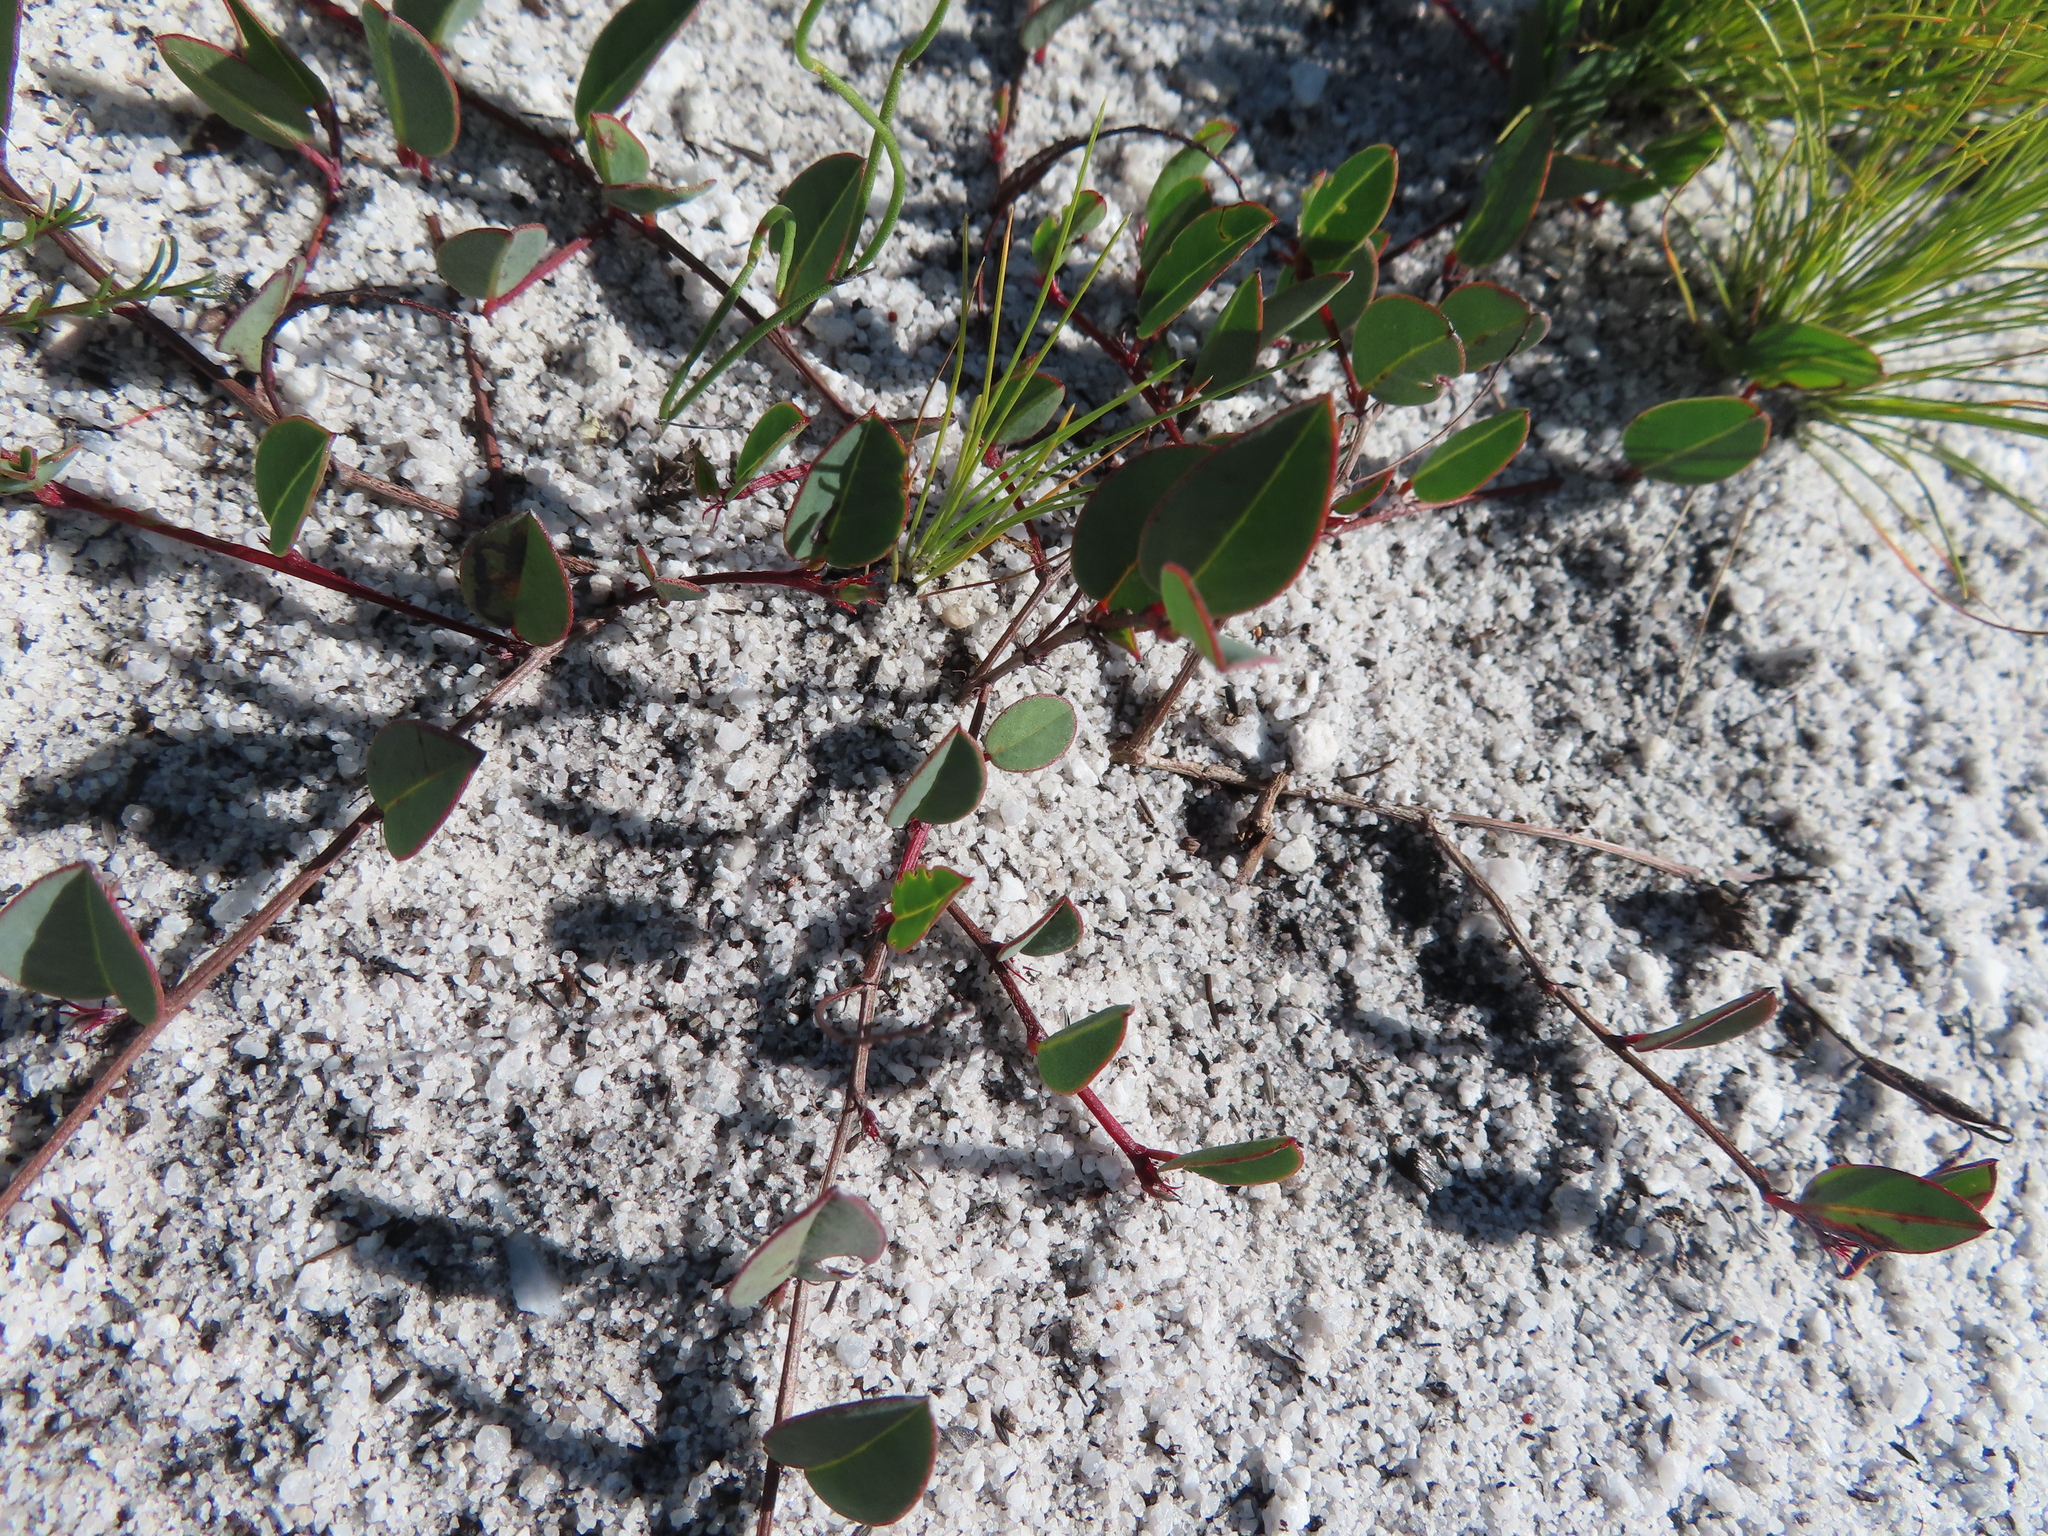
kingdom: Plantae
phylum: Tracheophyta
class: Magnoliopsida
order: Fabales
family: Fabaceae
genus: Indigofera
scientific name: Indigofera ovata
